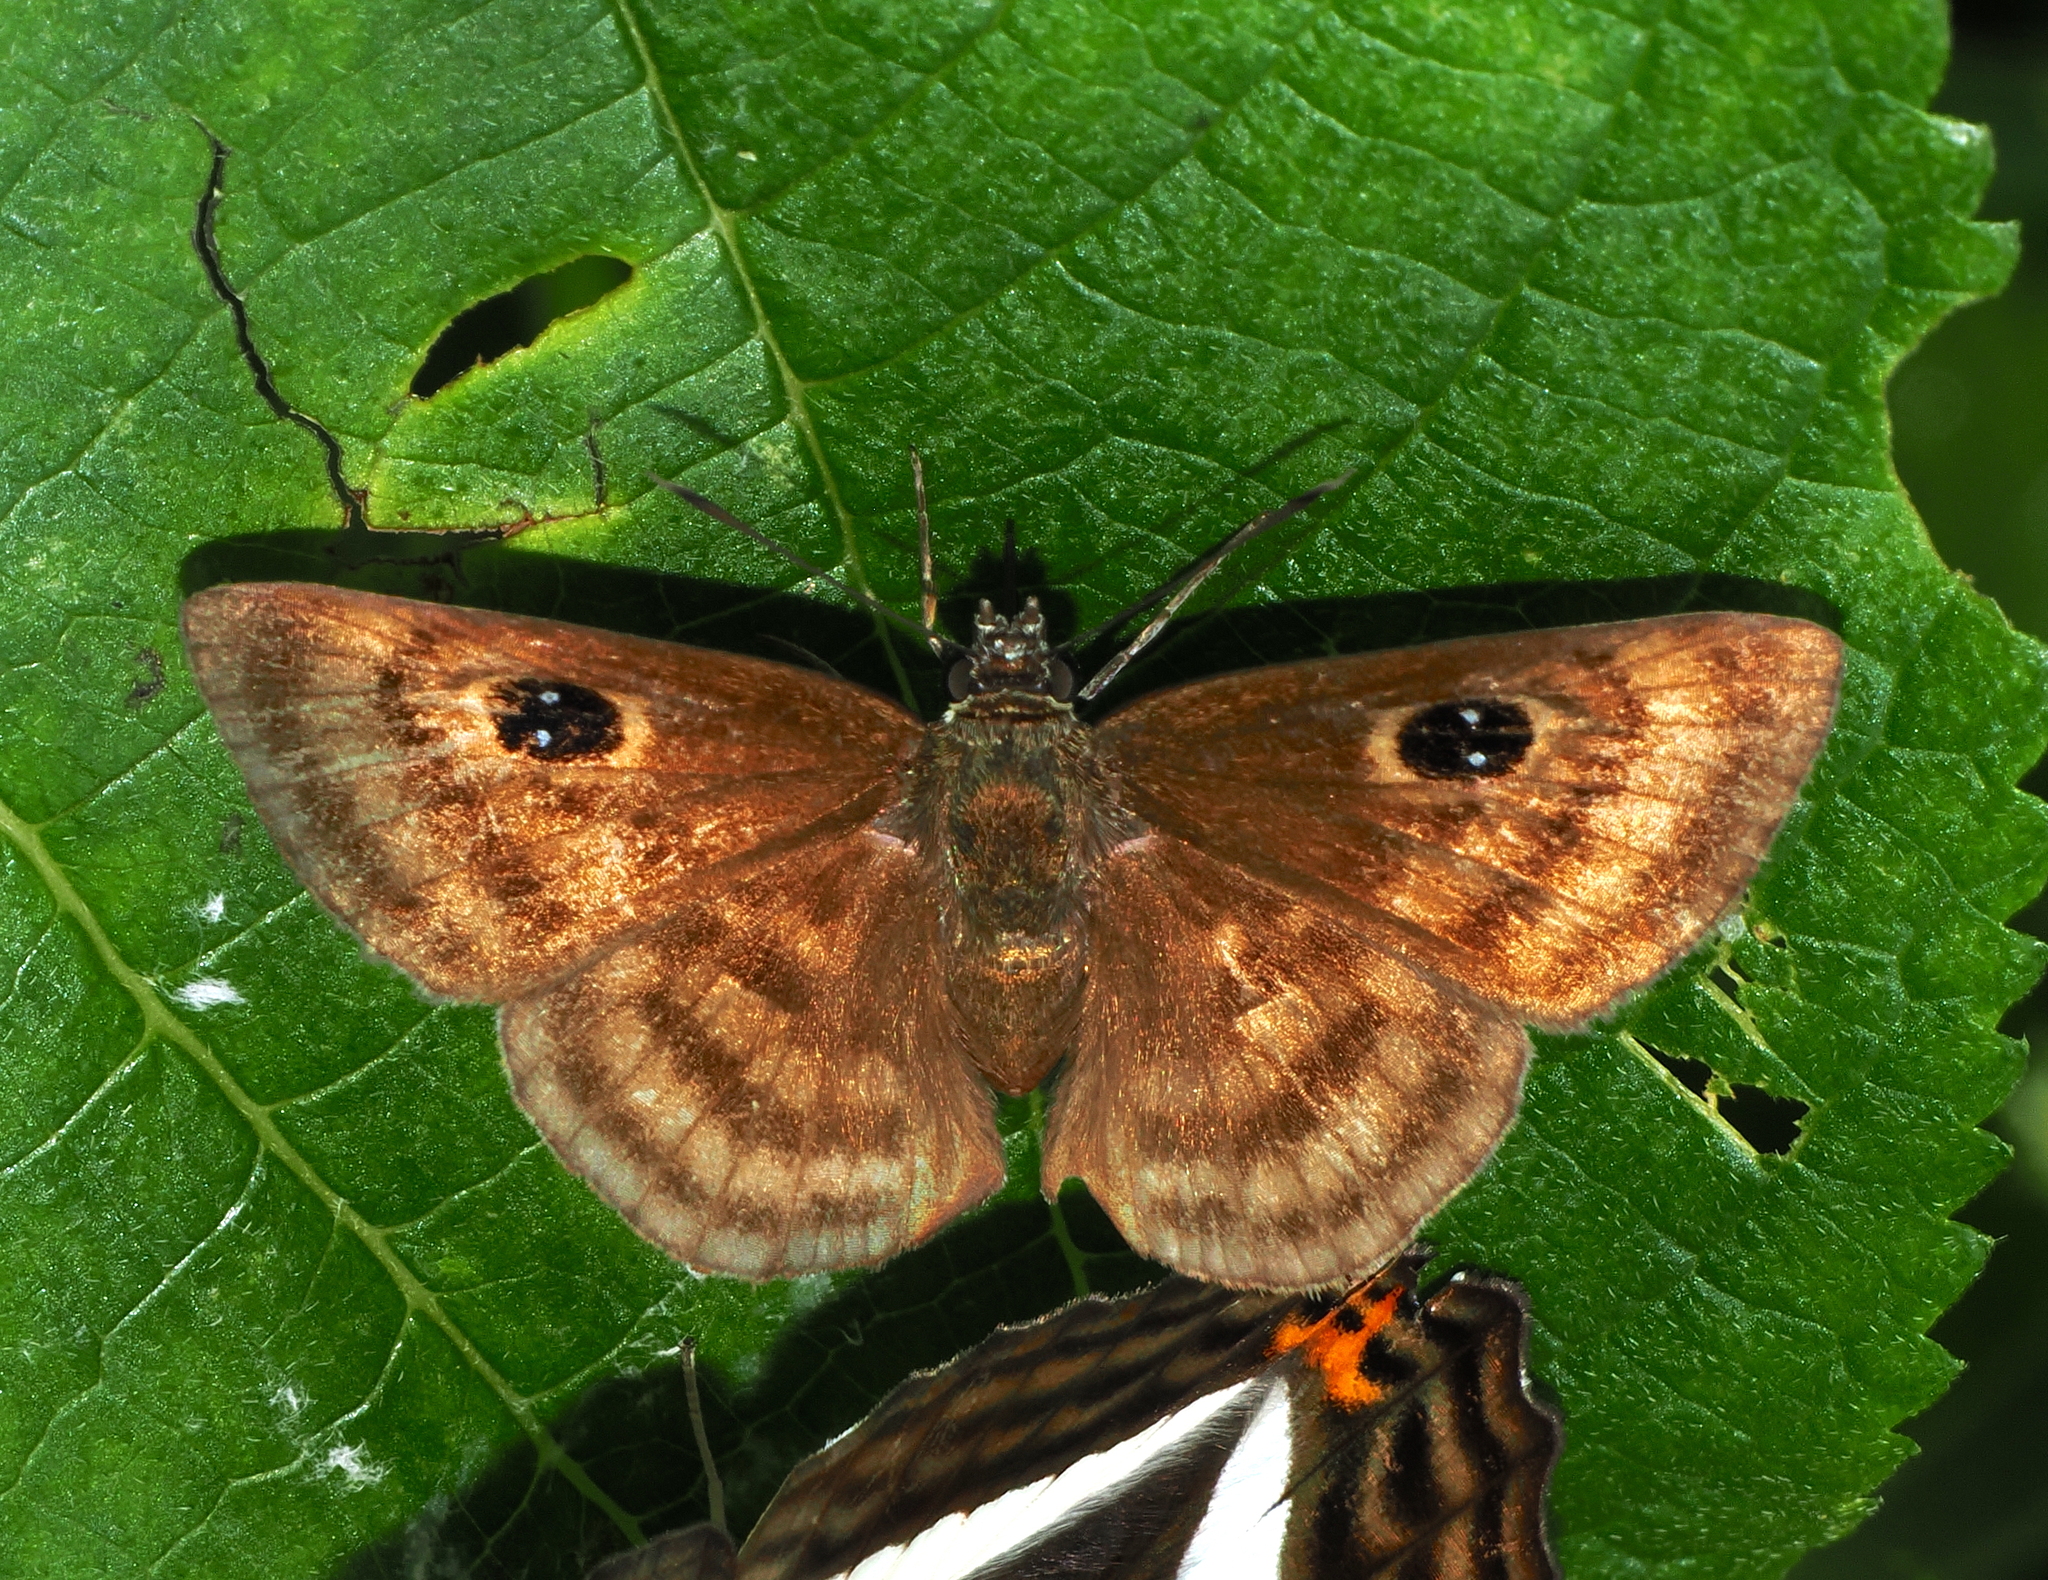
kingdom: Animalia
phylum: Arthropoda
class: Insecta
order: Lepidoptera
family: Hesperiidae
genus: Cyclosemia
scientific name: Cyclosemia anastomosis
